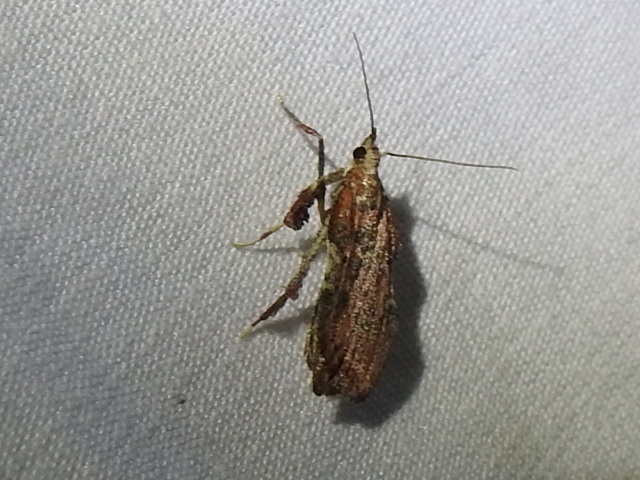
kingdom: Animalia
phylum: Arthropoda
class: Insecta
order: Lepidoptera
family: Pyralidae
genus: Galasa
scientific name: Galasa nigripunctalis
